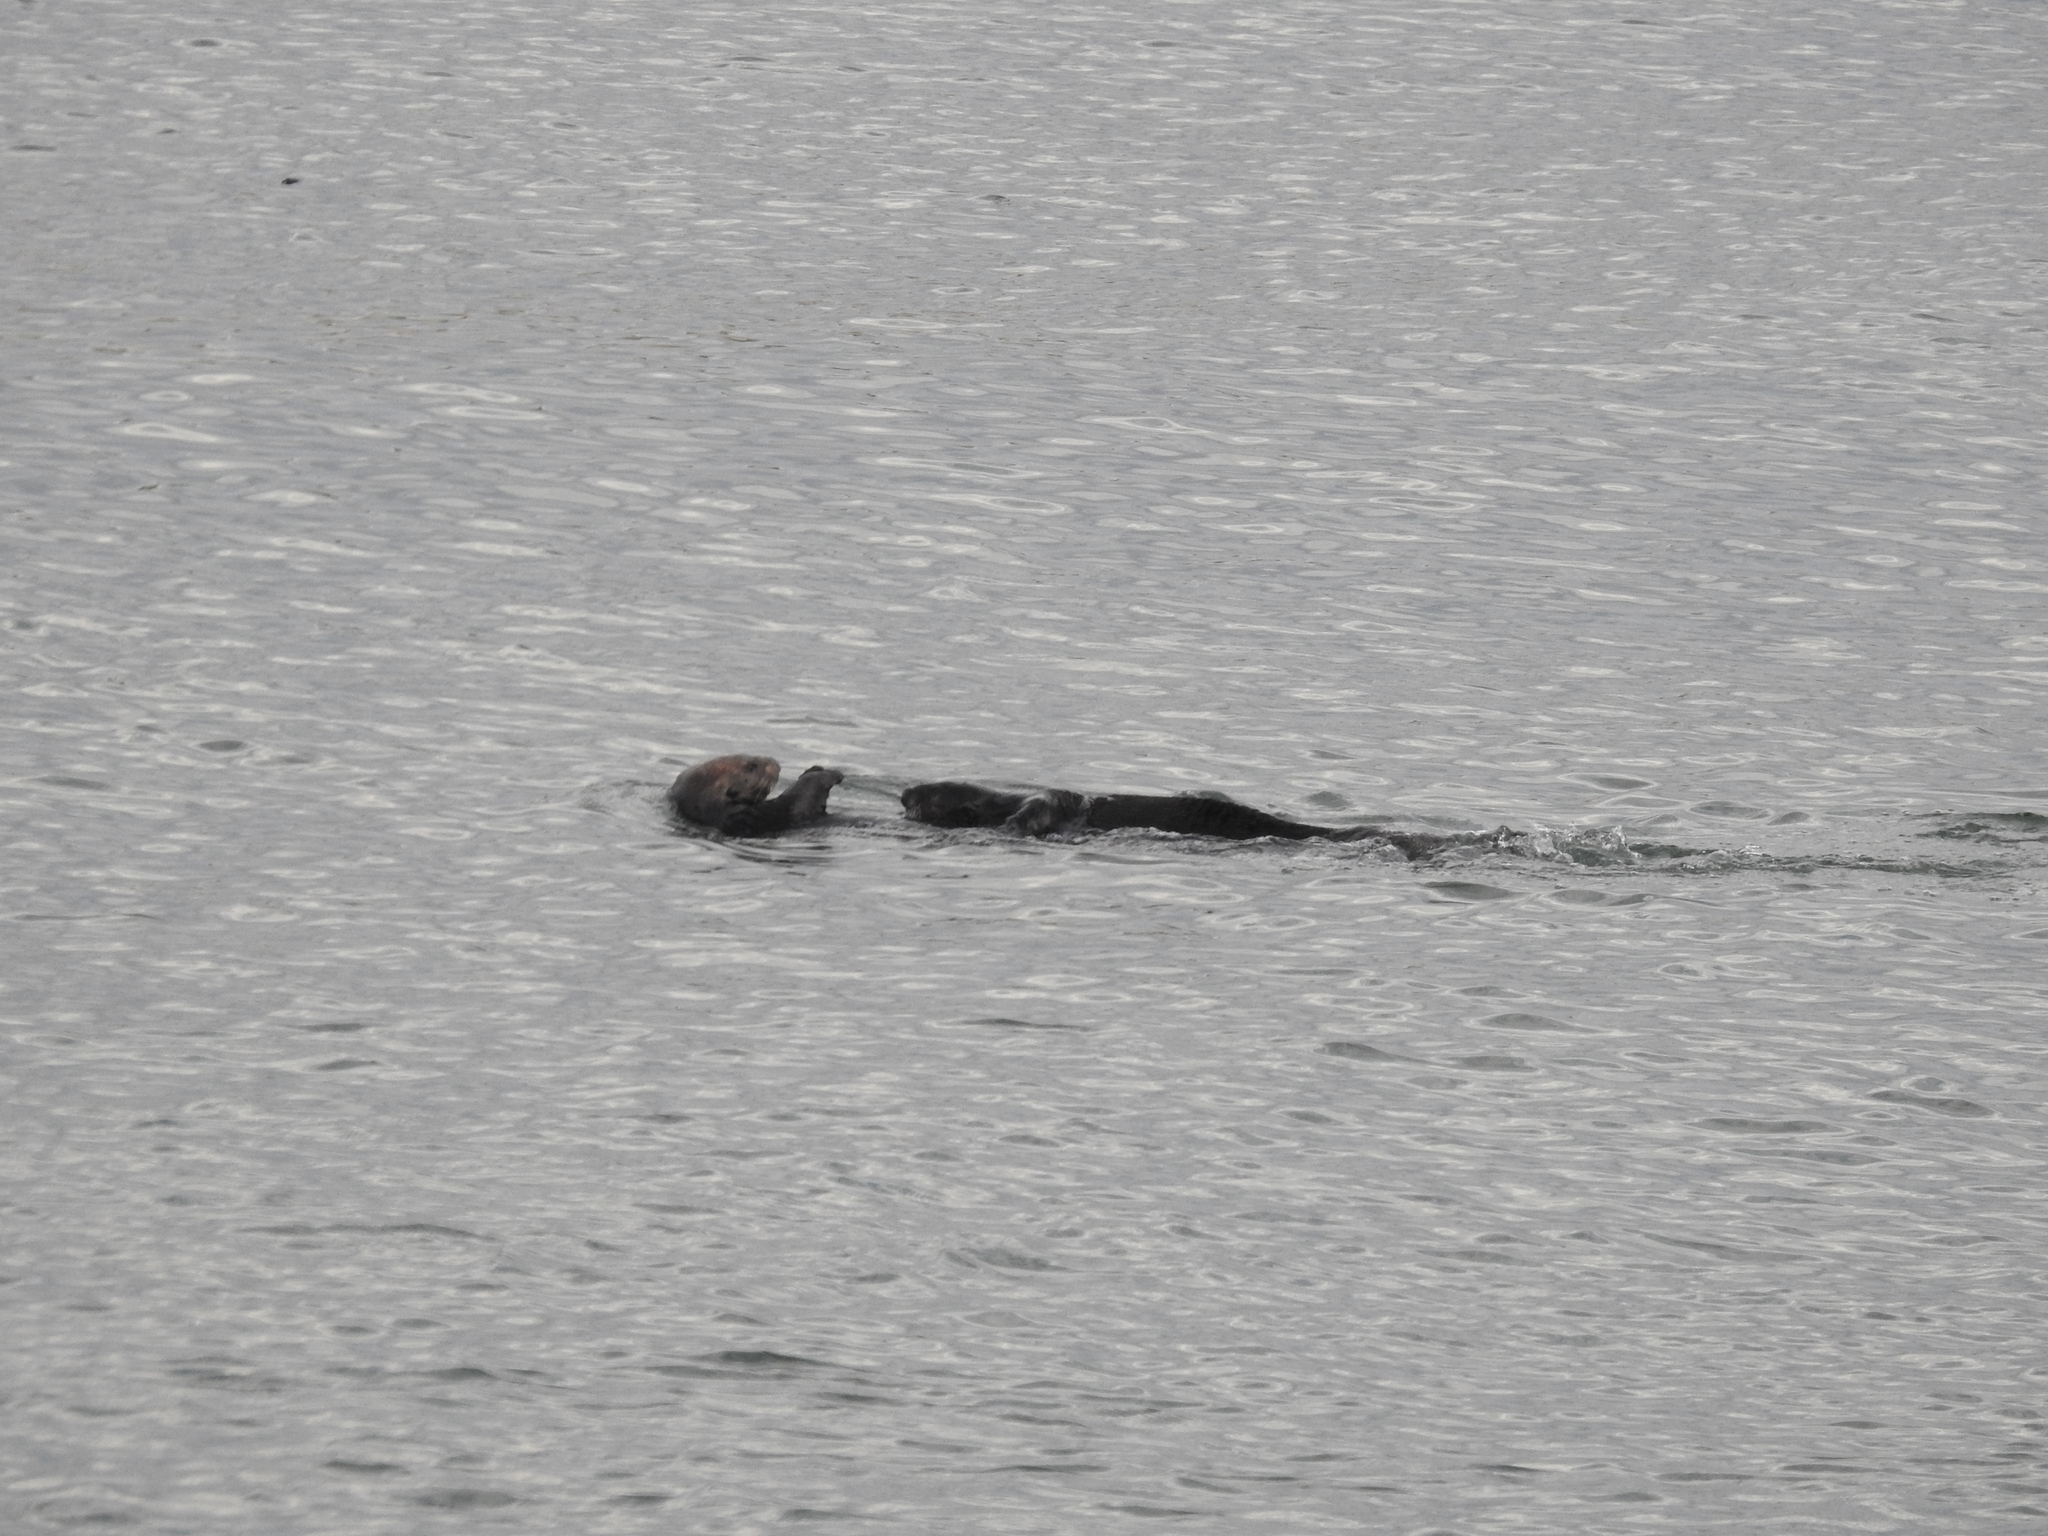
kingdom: Animalia
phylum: Chordata
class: Mammalia
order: Carnivora
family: Mustelidae
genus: Enhydra
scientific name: Enhydra lutris
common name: Sea otter
